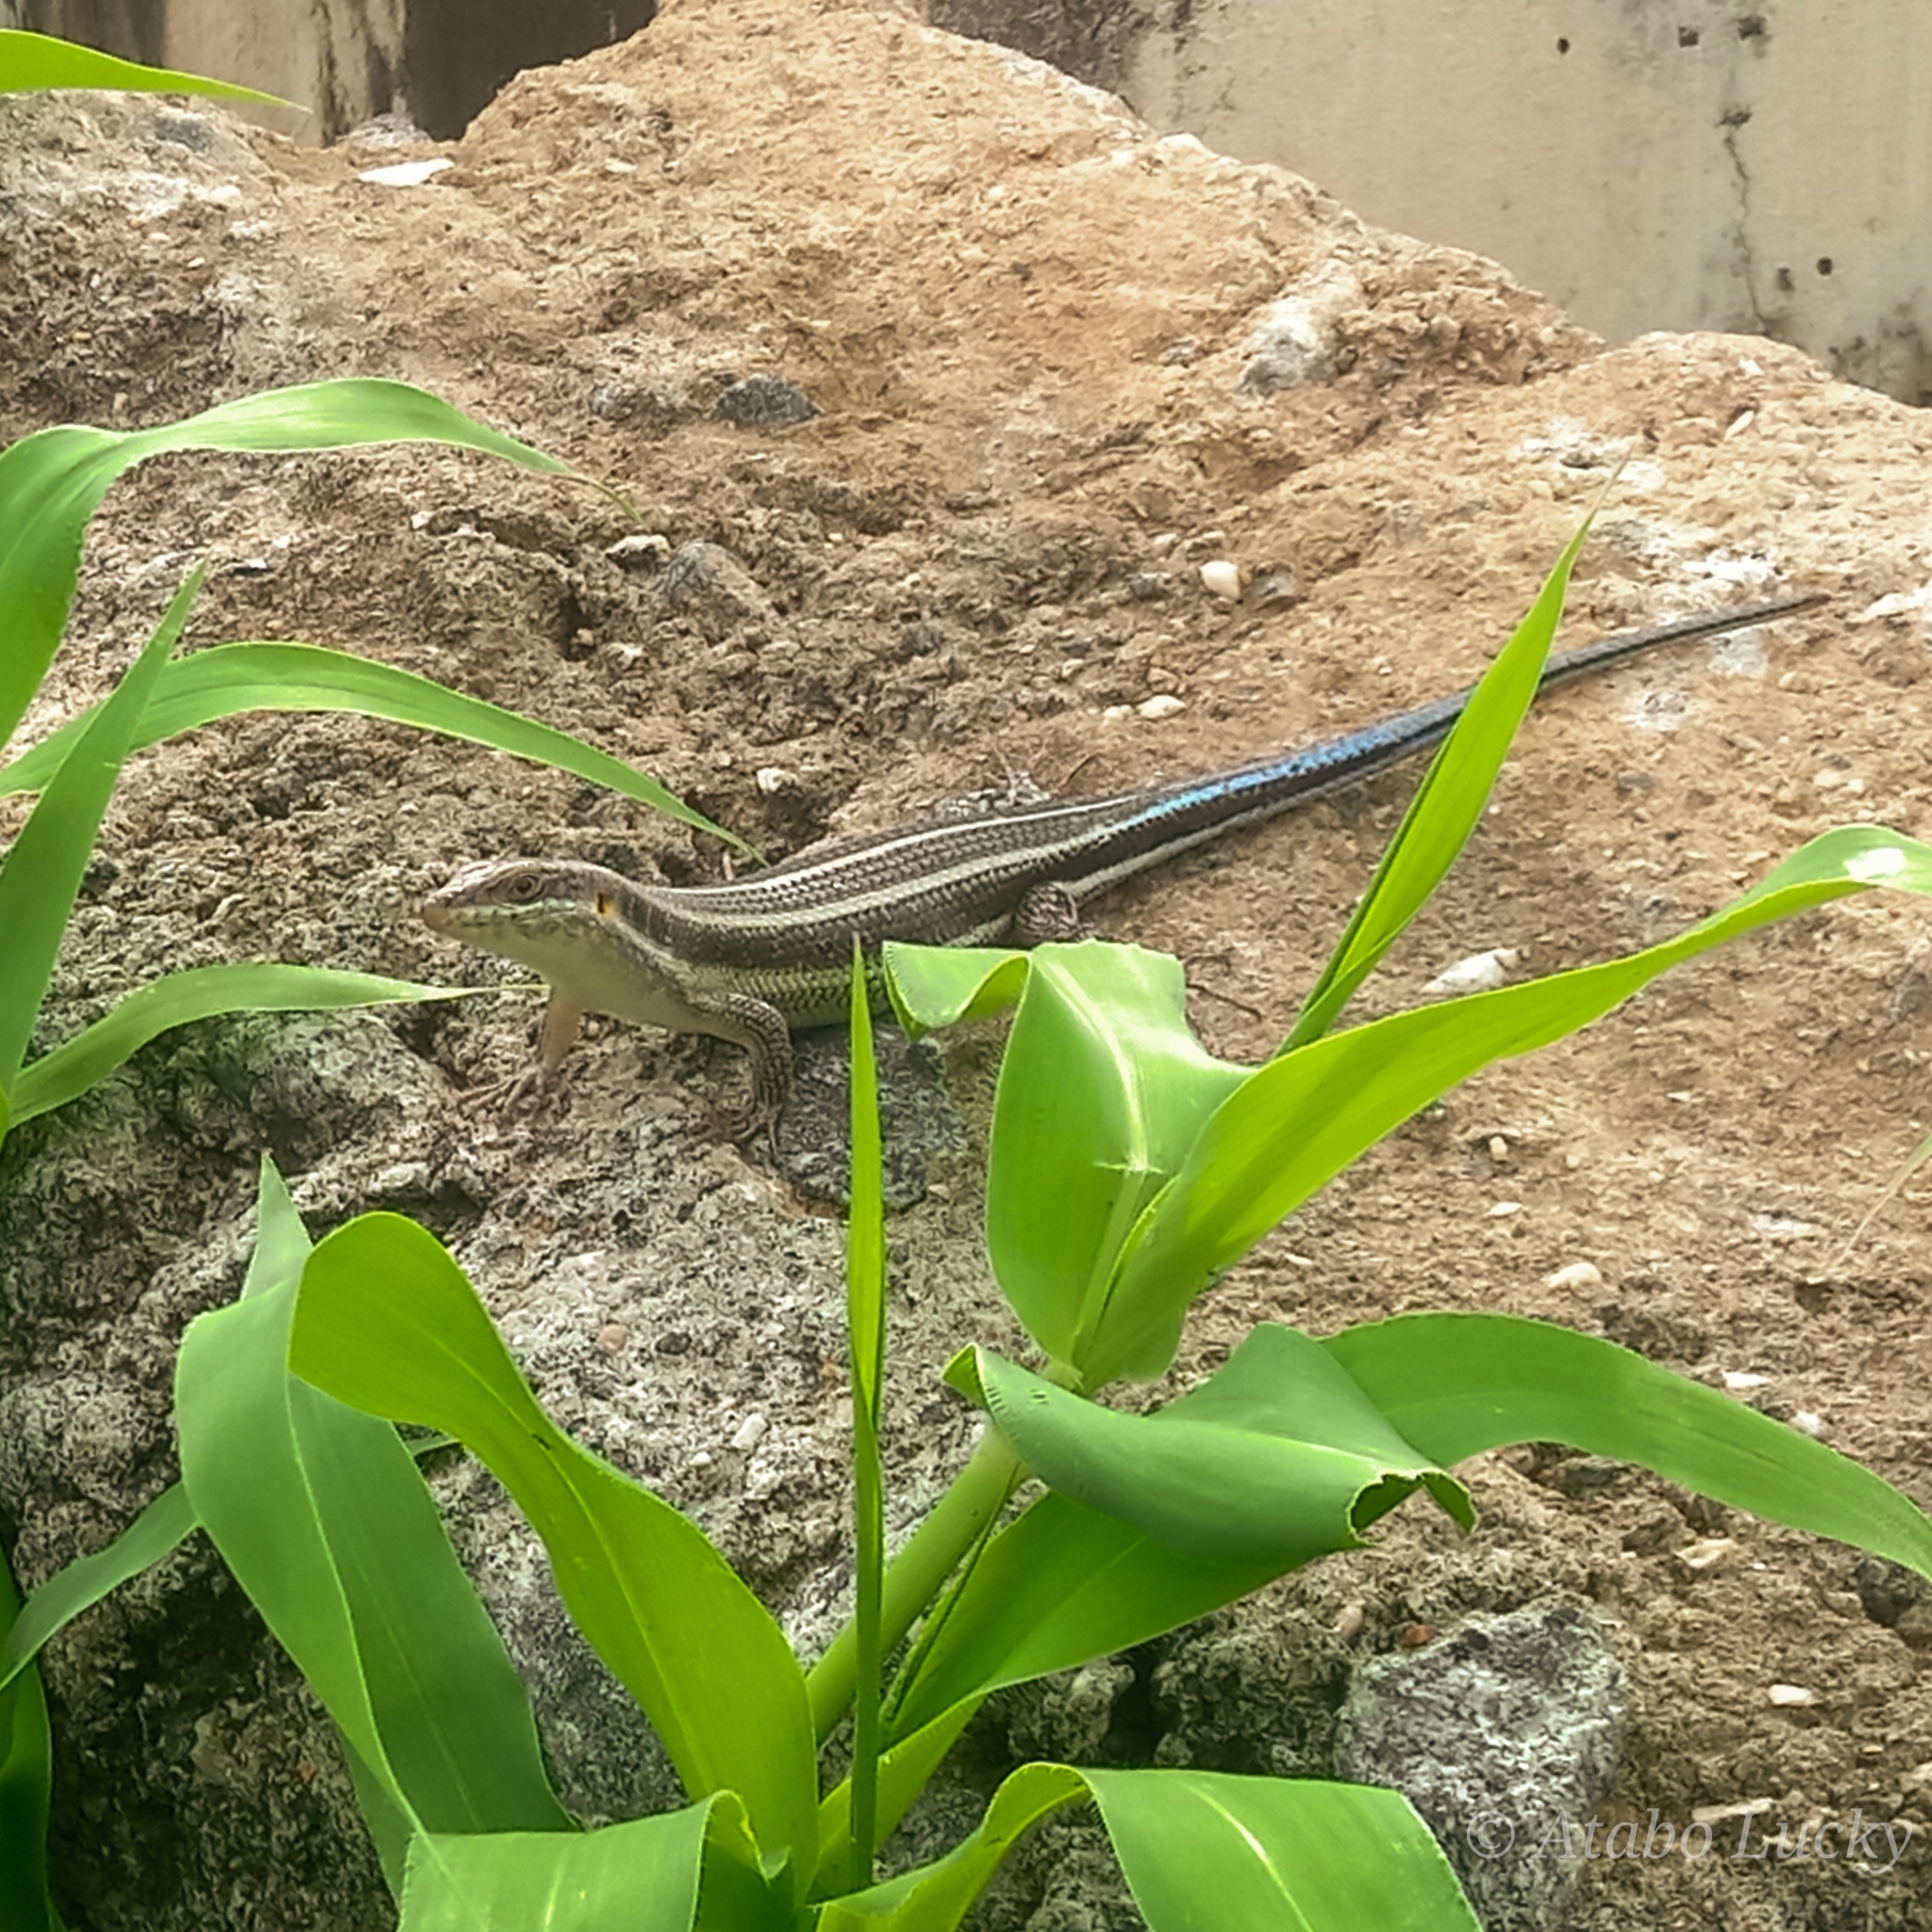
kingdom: Animalia
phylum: Chordata
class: Squamata
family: Scincidae
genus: Trachylepis
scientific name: Trachylepis quinquetaeniata
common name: African five-lined skink
